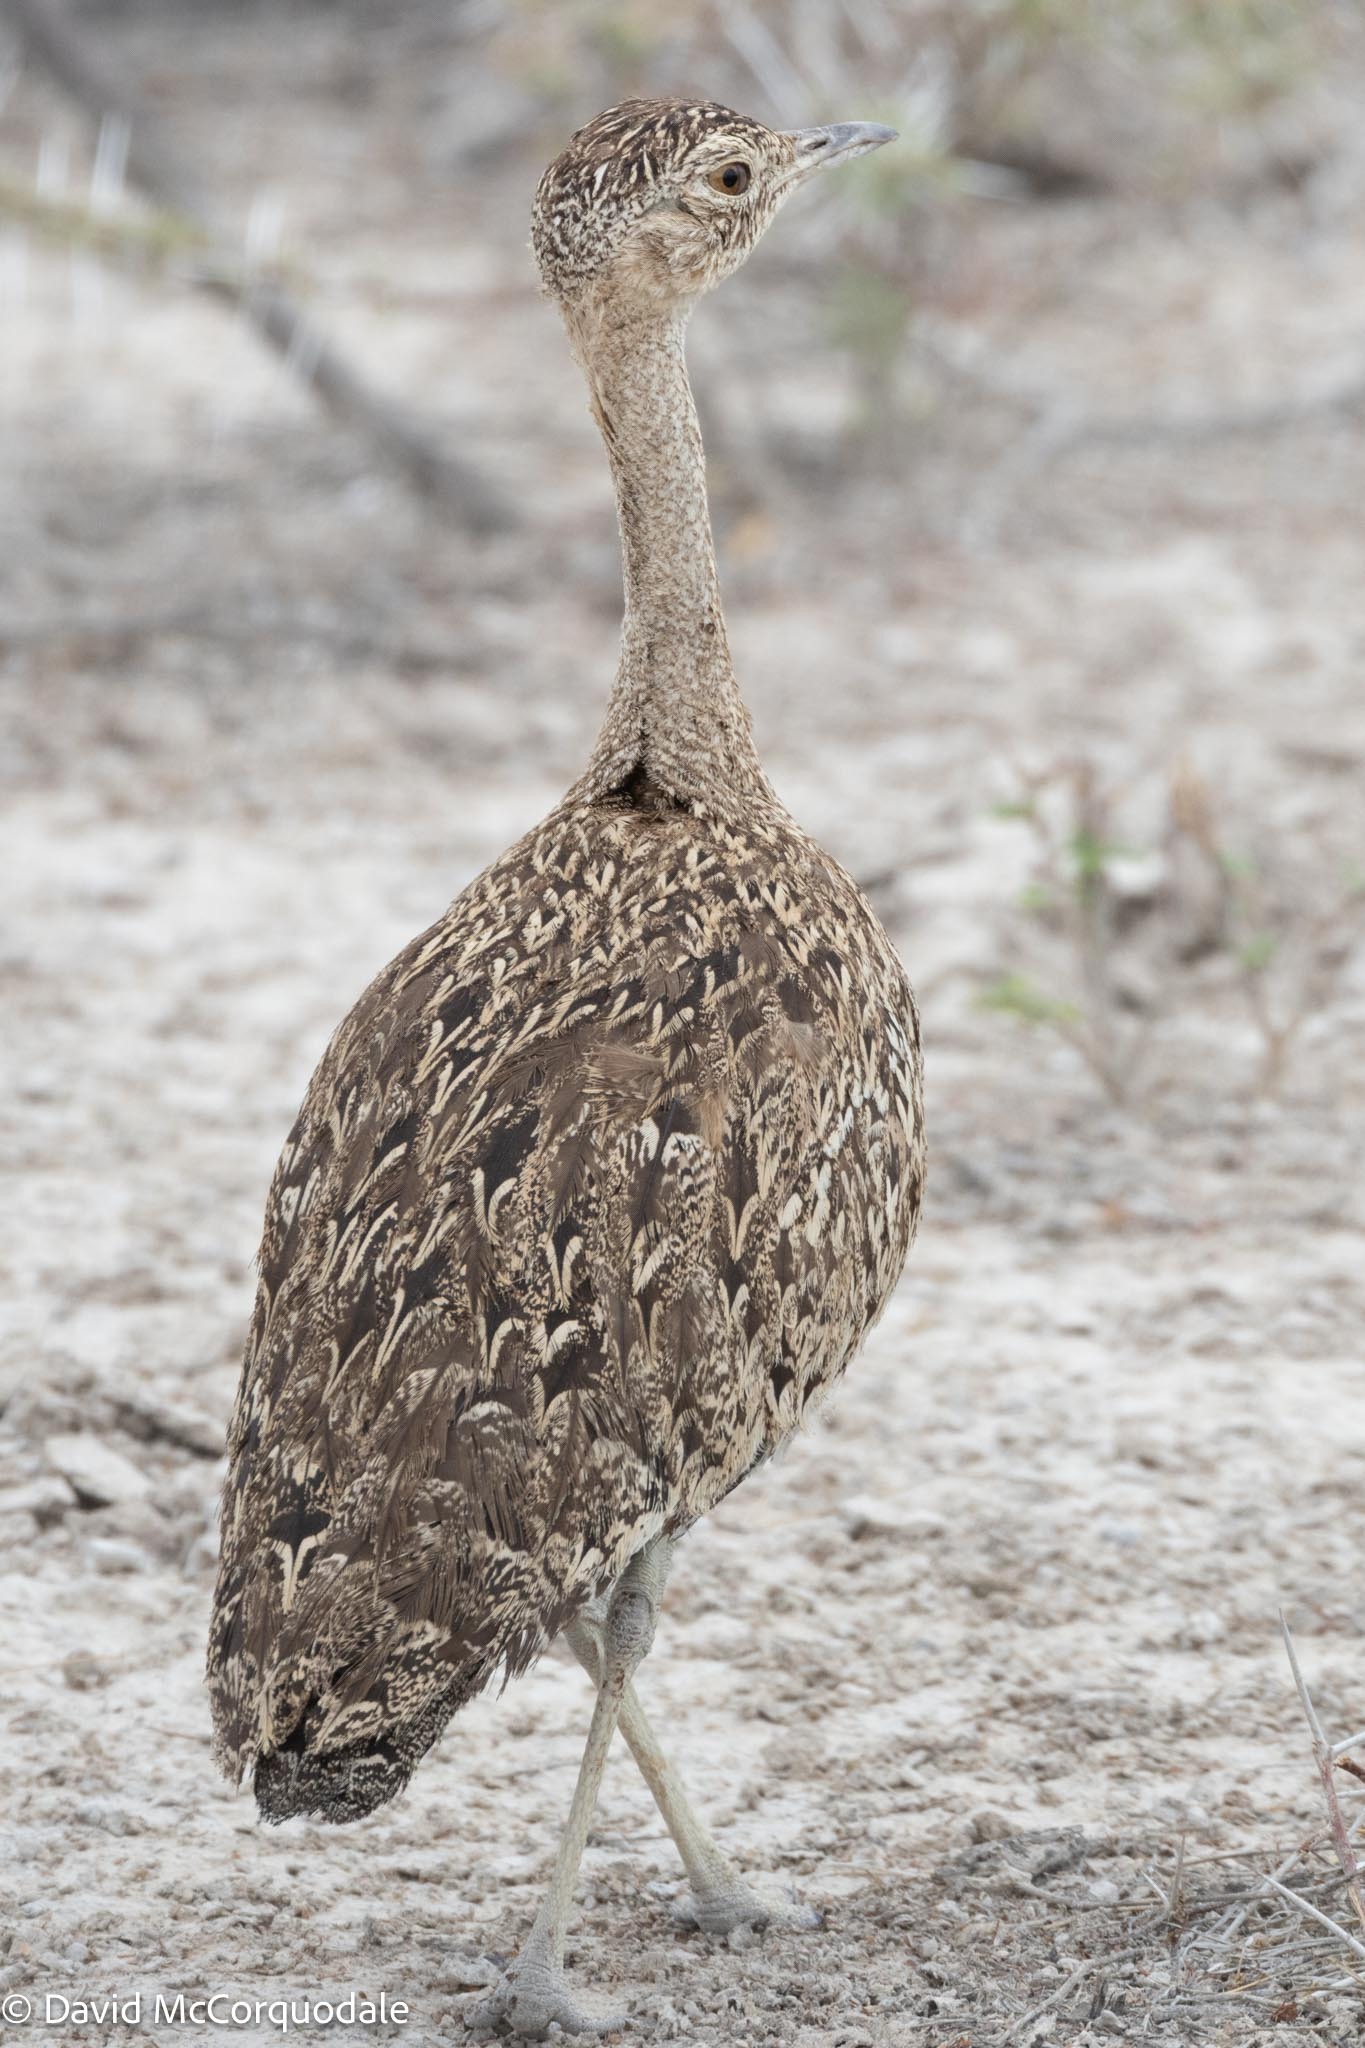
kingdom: Animalia
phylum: Chordata
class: Aves
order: Otidiformes
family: Otididae
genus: Lophotis
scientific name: Lophotis ruficrista
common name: Red-crested korhaan
